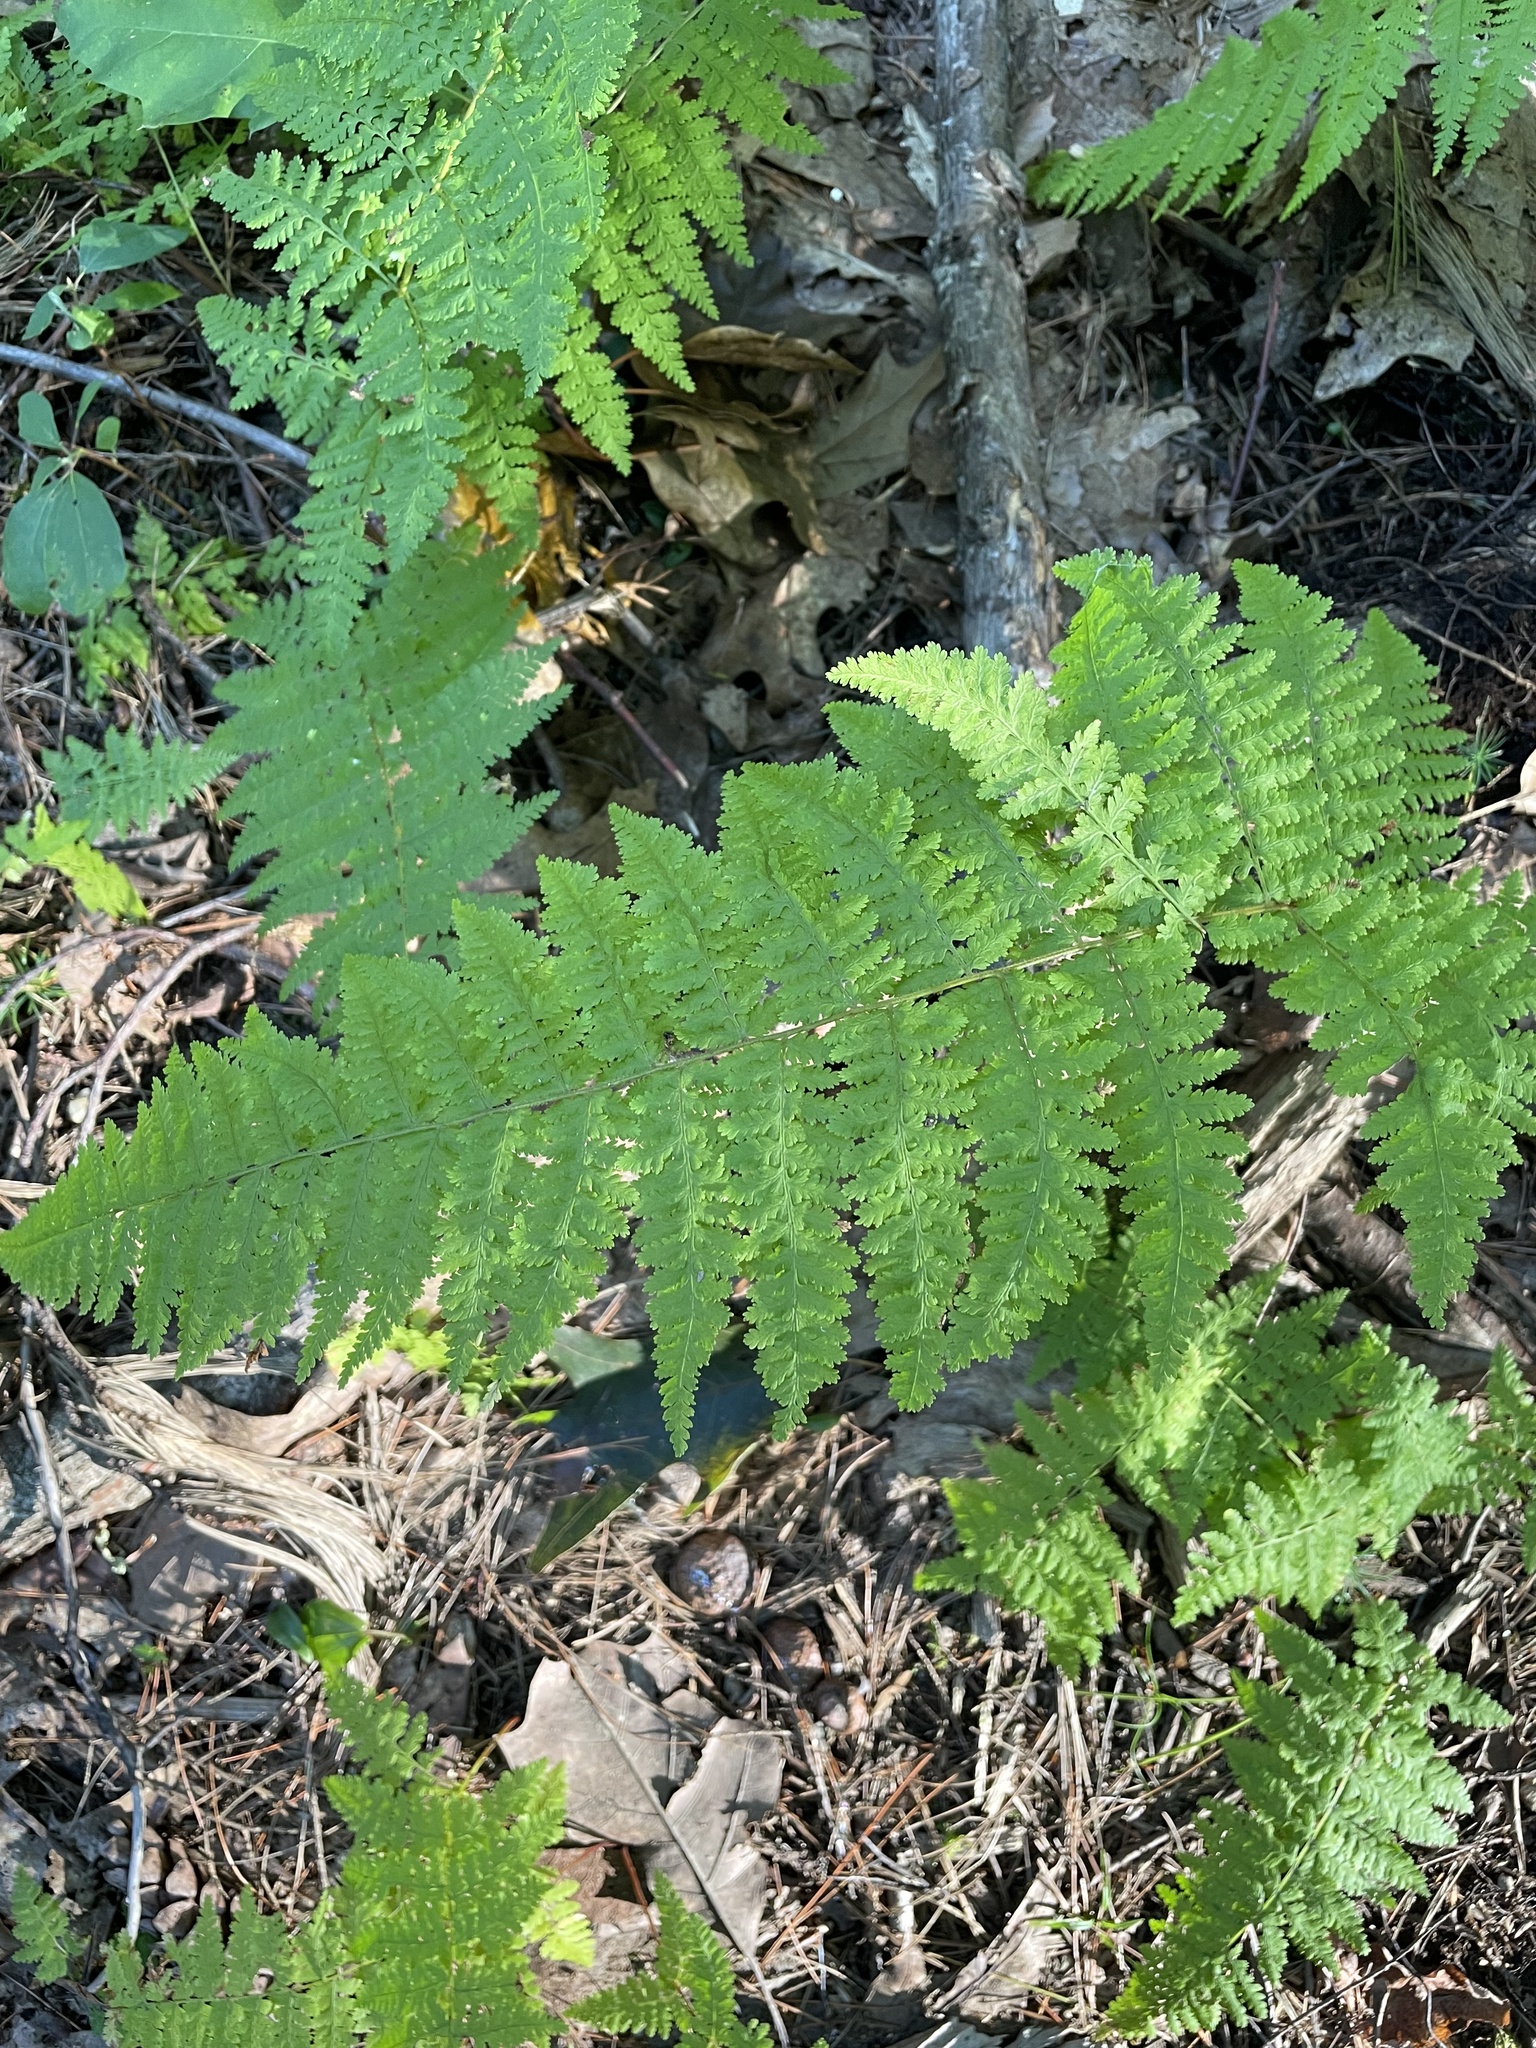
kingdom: Plantae
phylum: Tracheophyta
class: Polypodiopsida
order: Polypodiales
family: Dennstaedtiaceae
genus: Sitobolium
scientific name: Sitobolium punctilobum
